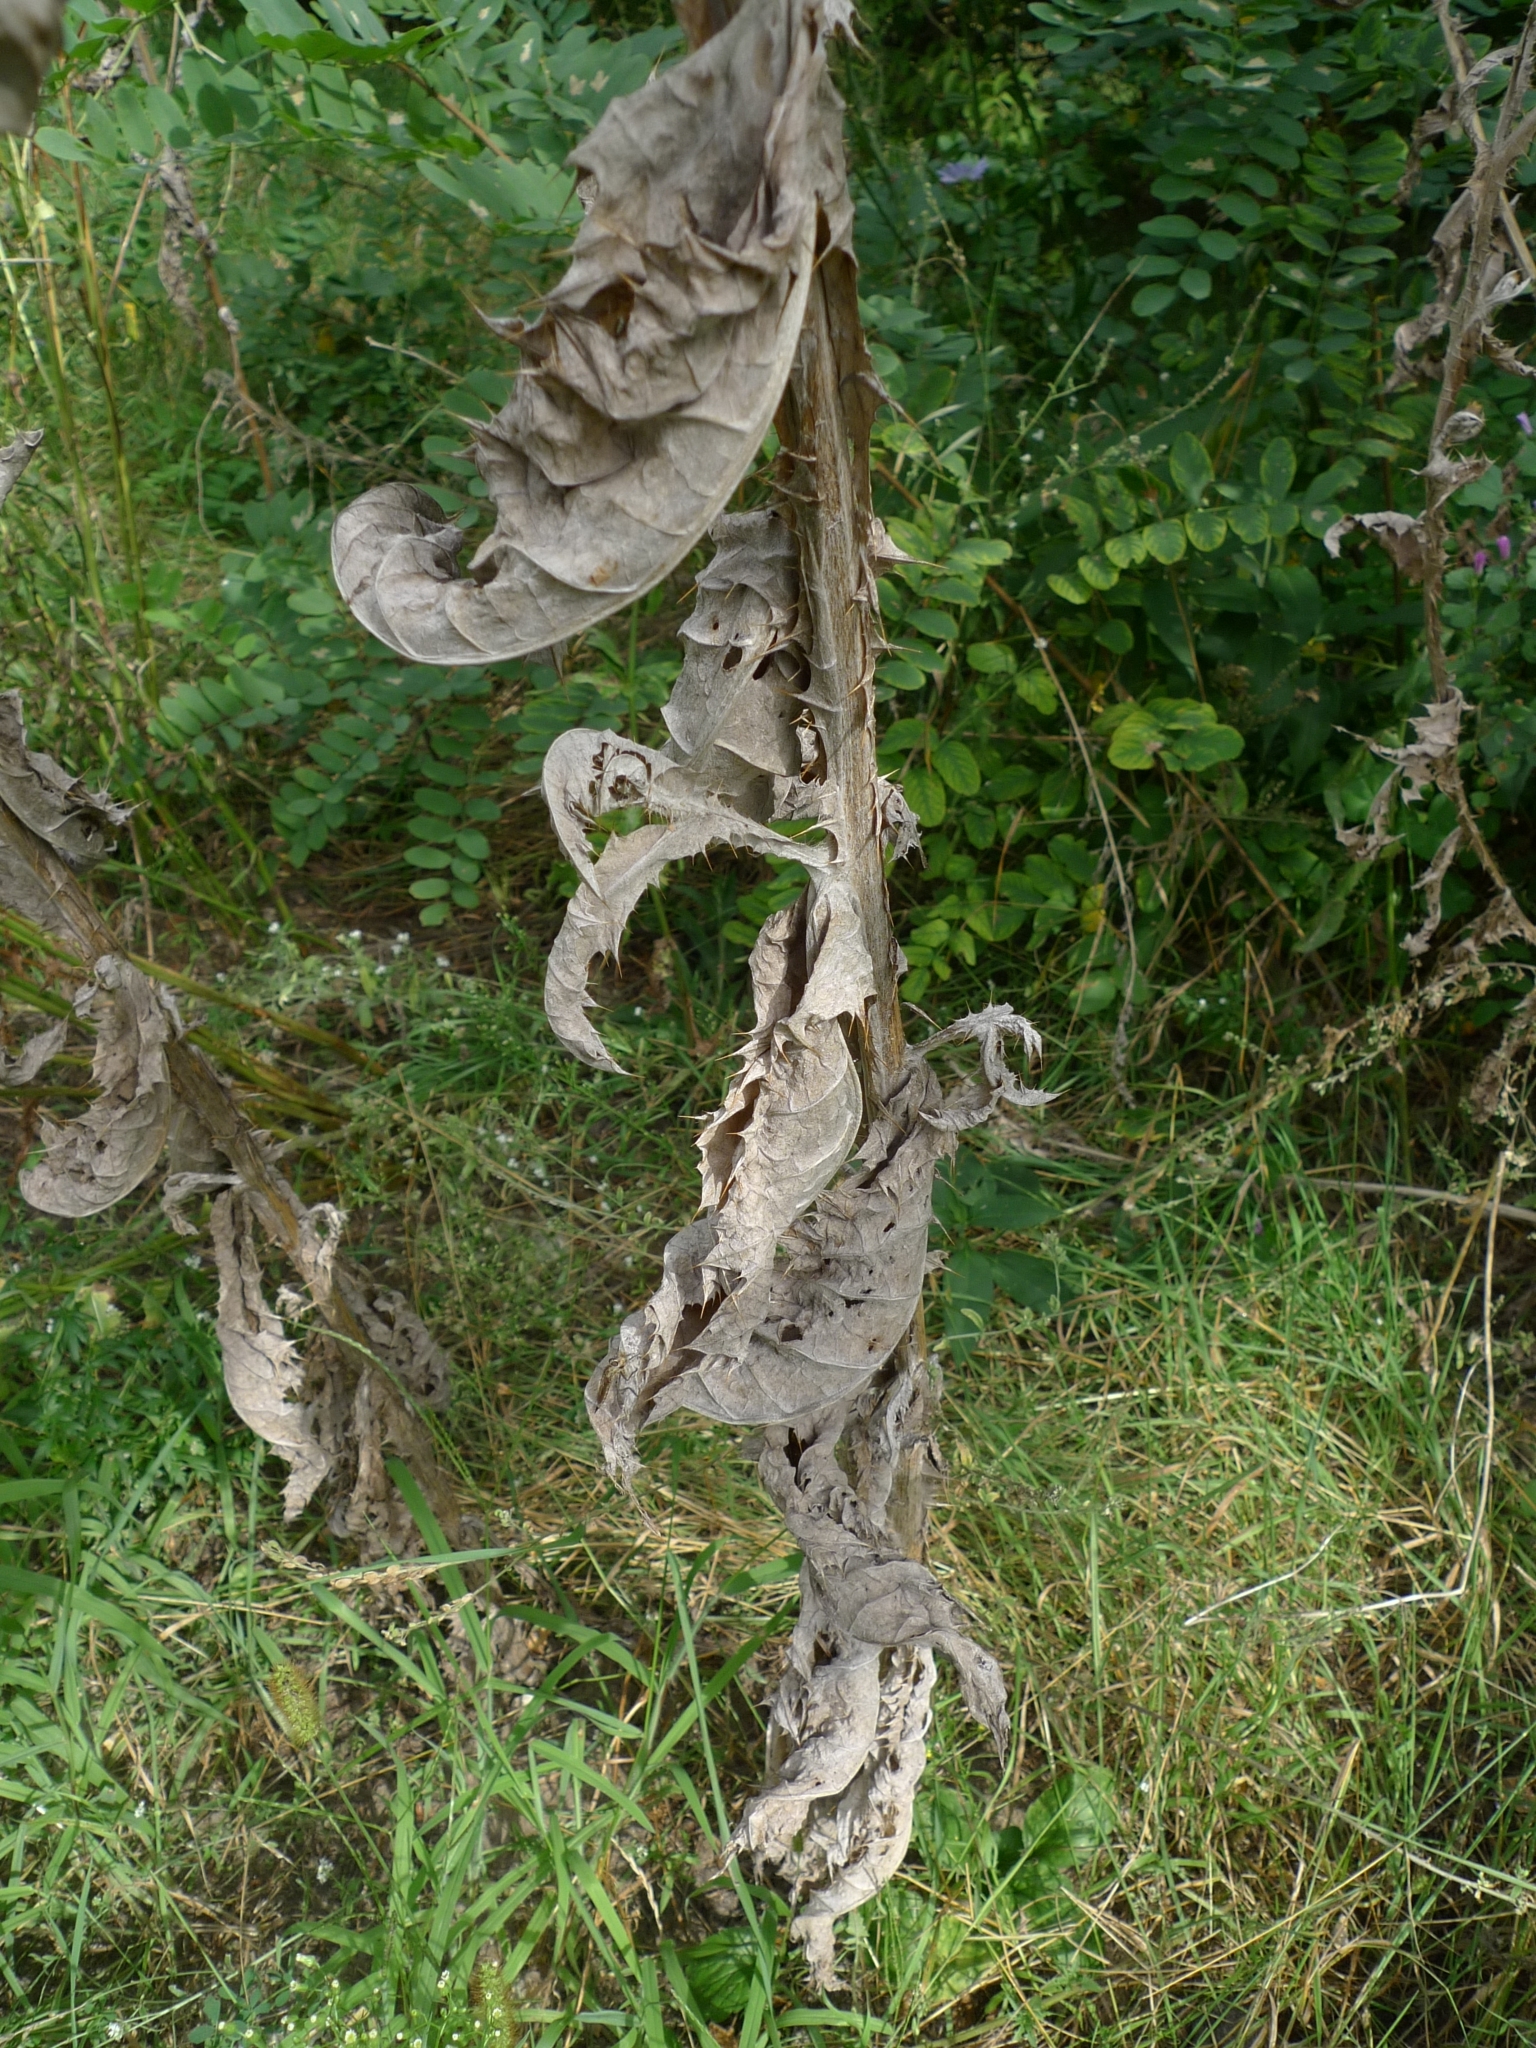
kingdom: Plantae
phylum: Tracheophyta
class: Magnoliopsida
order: Asterales
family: Asteraceae
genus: Onopordum
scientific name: Onopordum acanthium
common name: Scotch thistle
